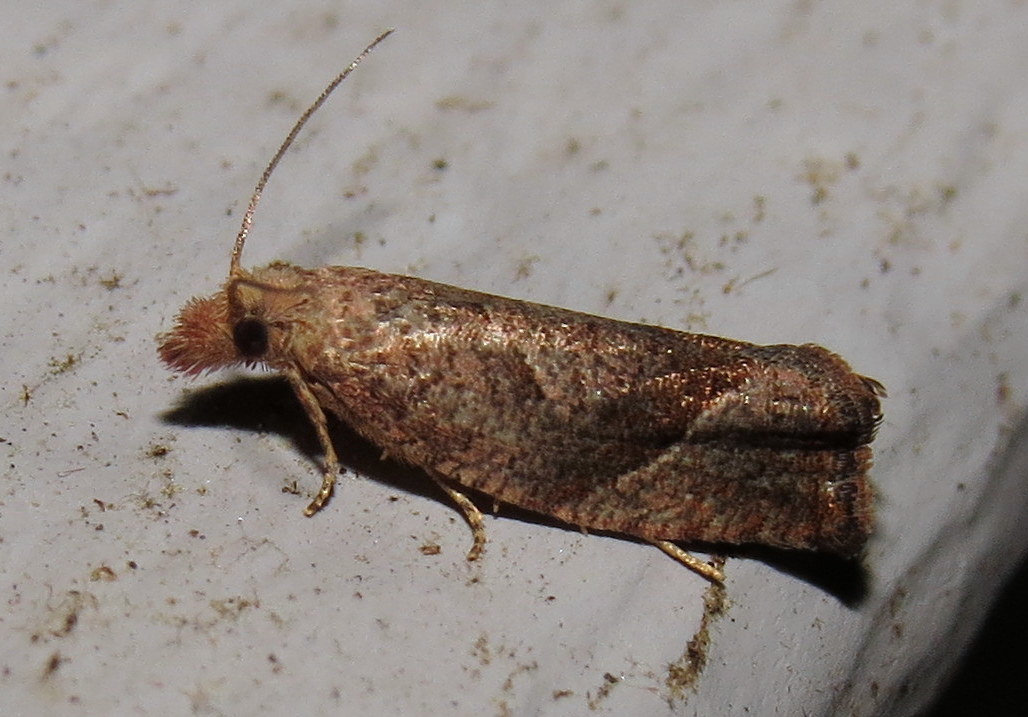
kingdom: Animalia
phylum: Arthropoda
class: Insecta
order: Lepidoptera
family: Tortricidae
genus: Pelochrista
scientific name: Pelochrista derelicta
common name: Derelict pelochrista moth
